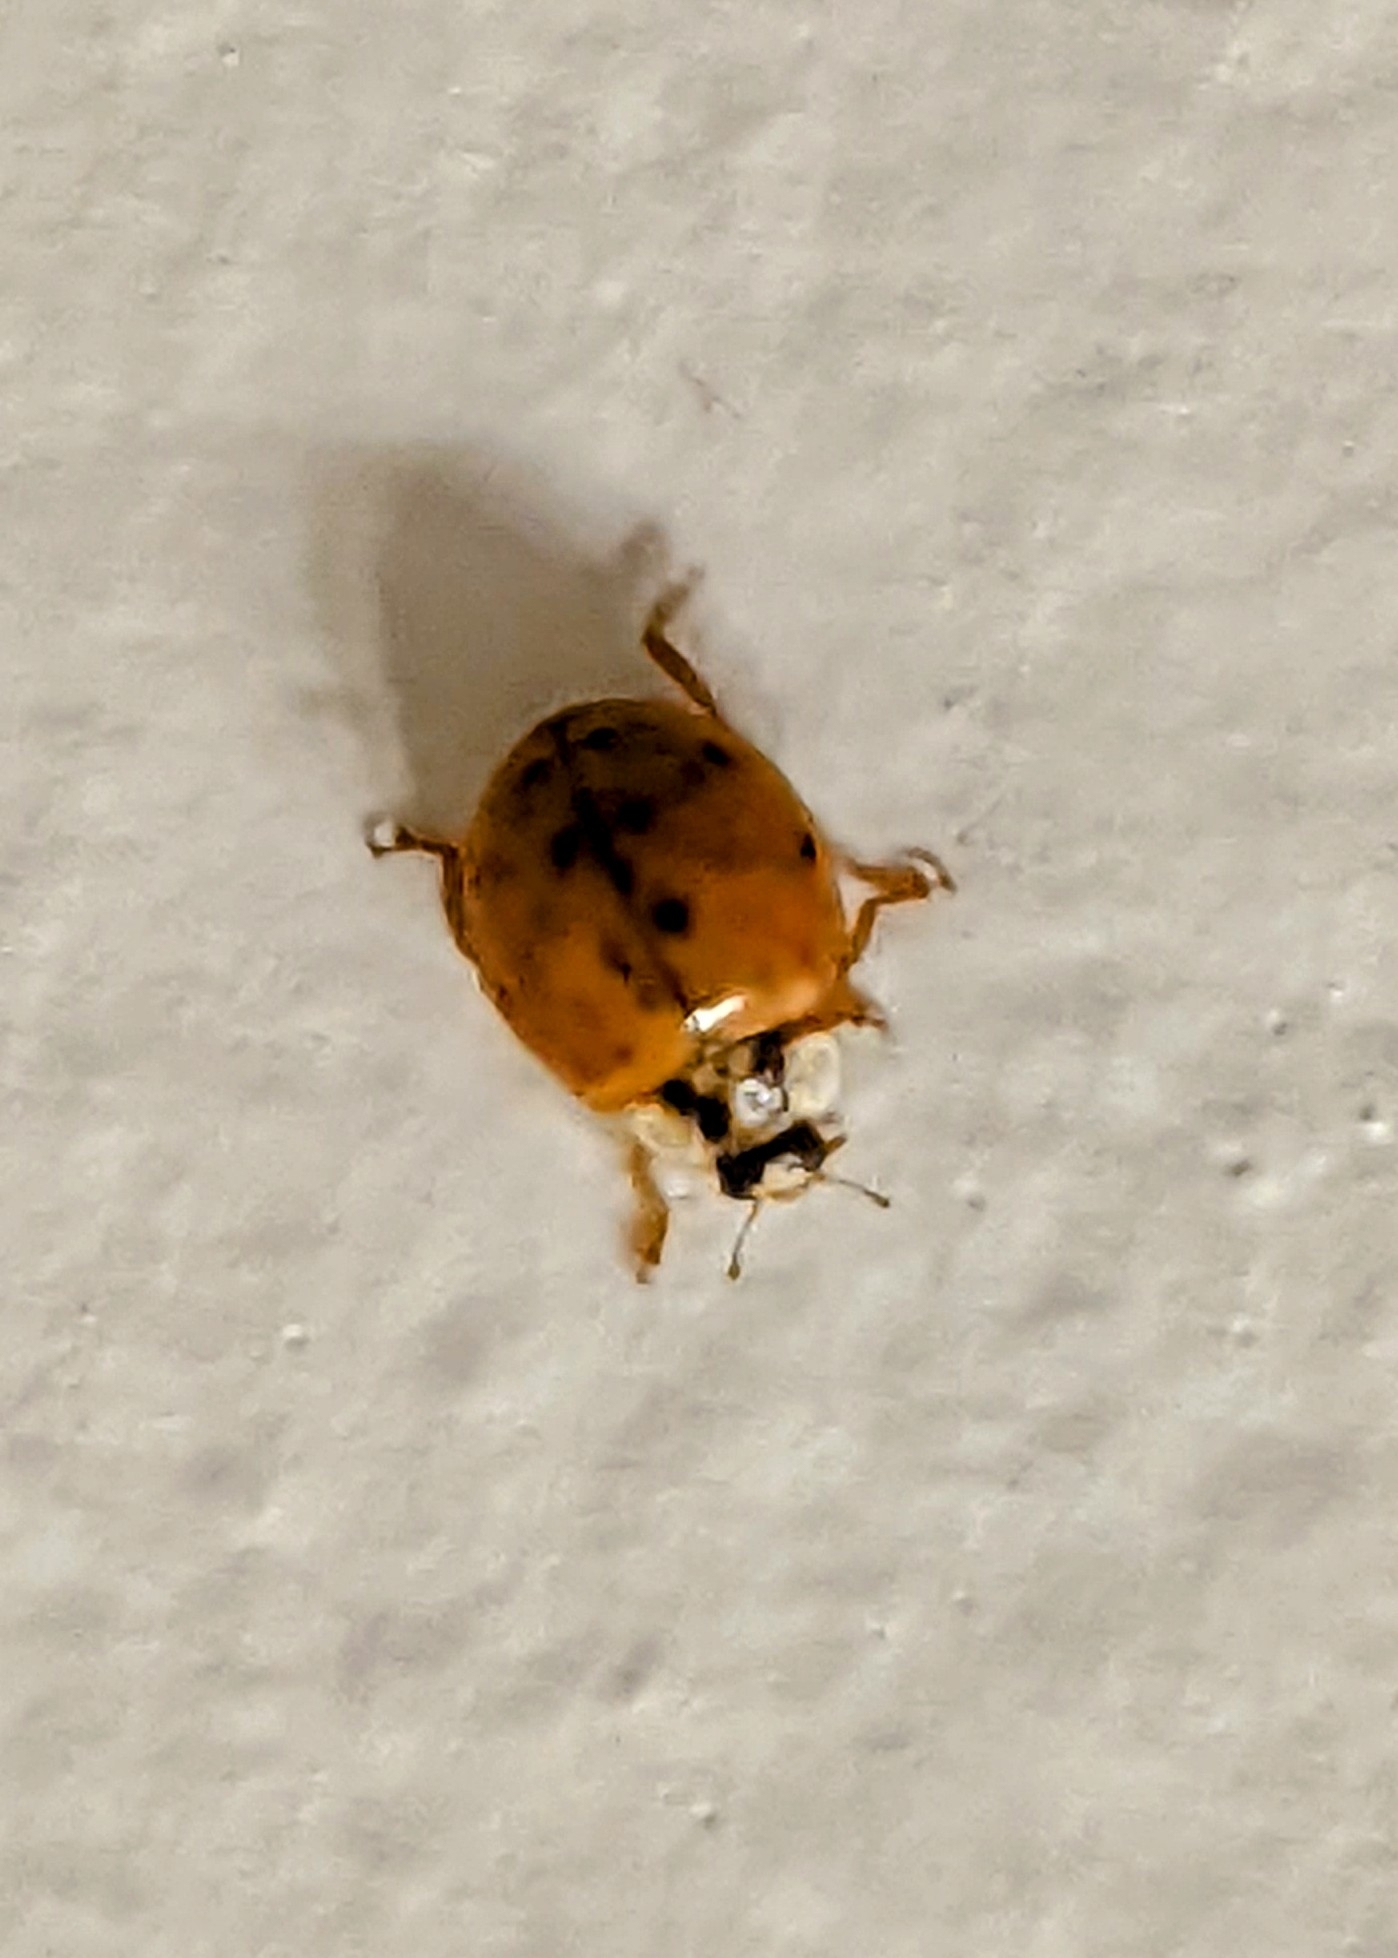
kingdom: Animalia
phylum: Arthropoda
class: Insecta
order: Coleoptera
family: Coccinellidae
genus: Harmonia
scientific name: Harmonia axyridis
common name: Harlequin ladybird
